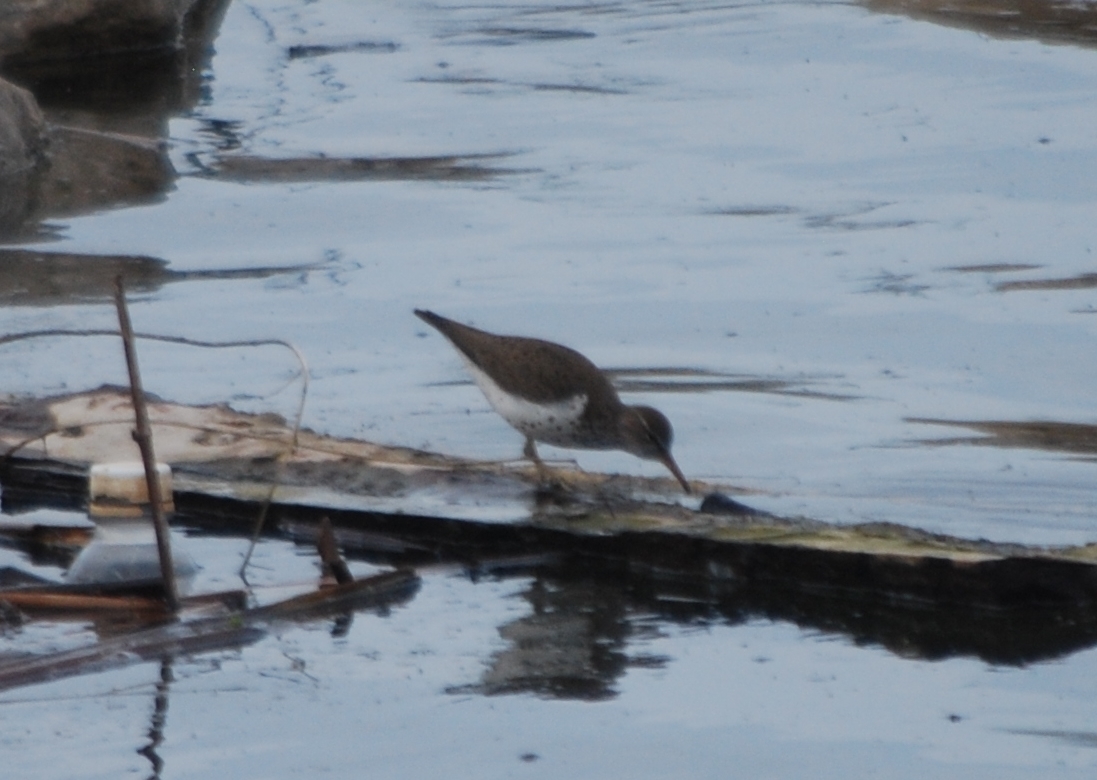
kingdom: Animalia
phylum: Chordata
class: Aves
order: Charadriiformes
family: Scolopacidae
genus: Actitis
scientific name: Actitis macularius
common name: Spotted sandpiper
